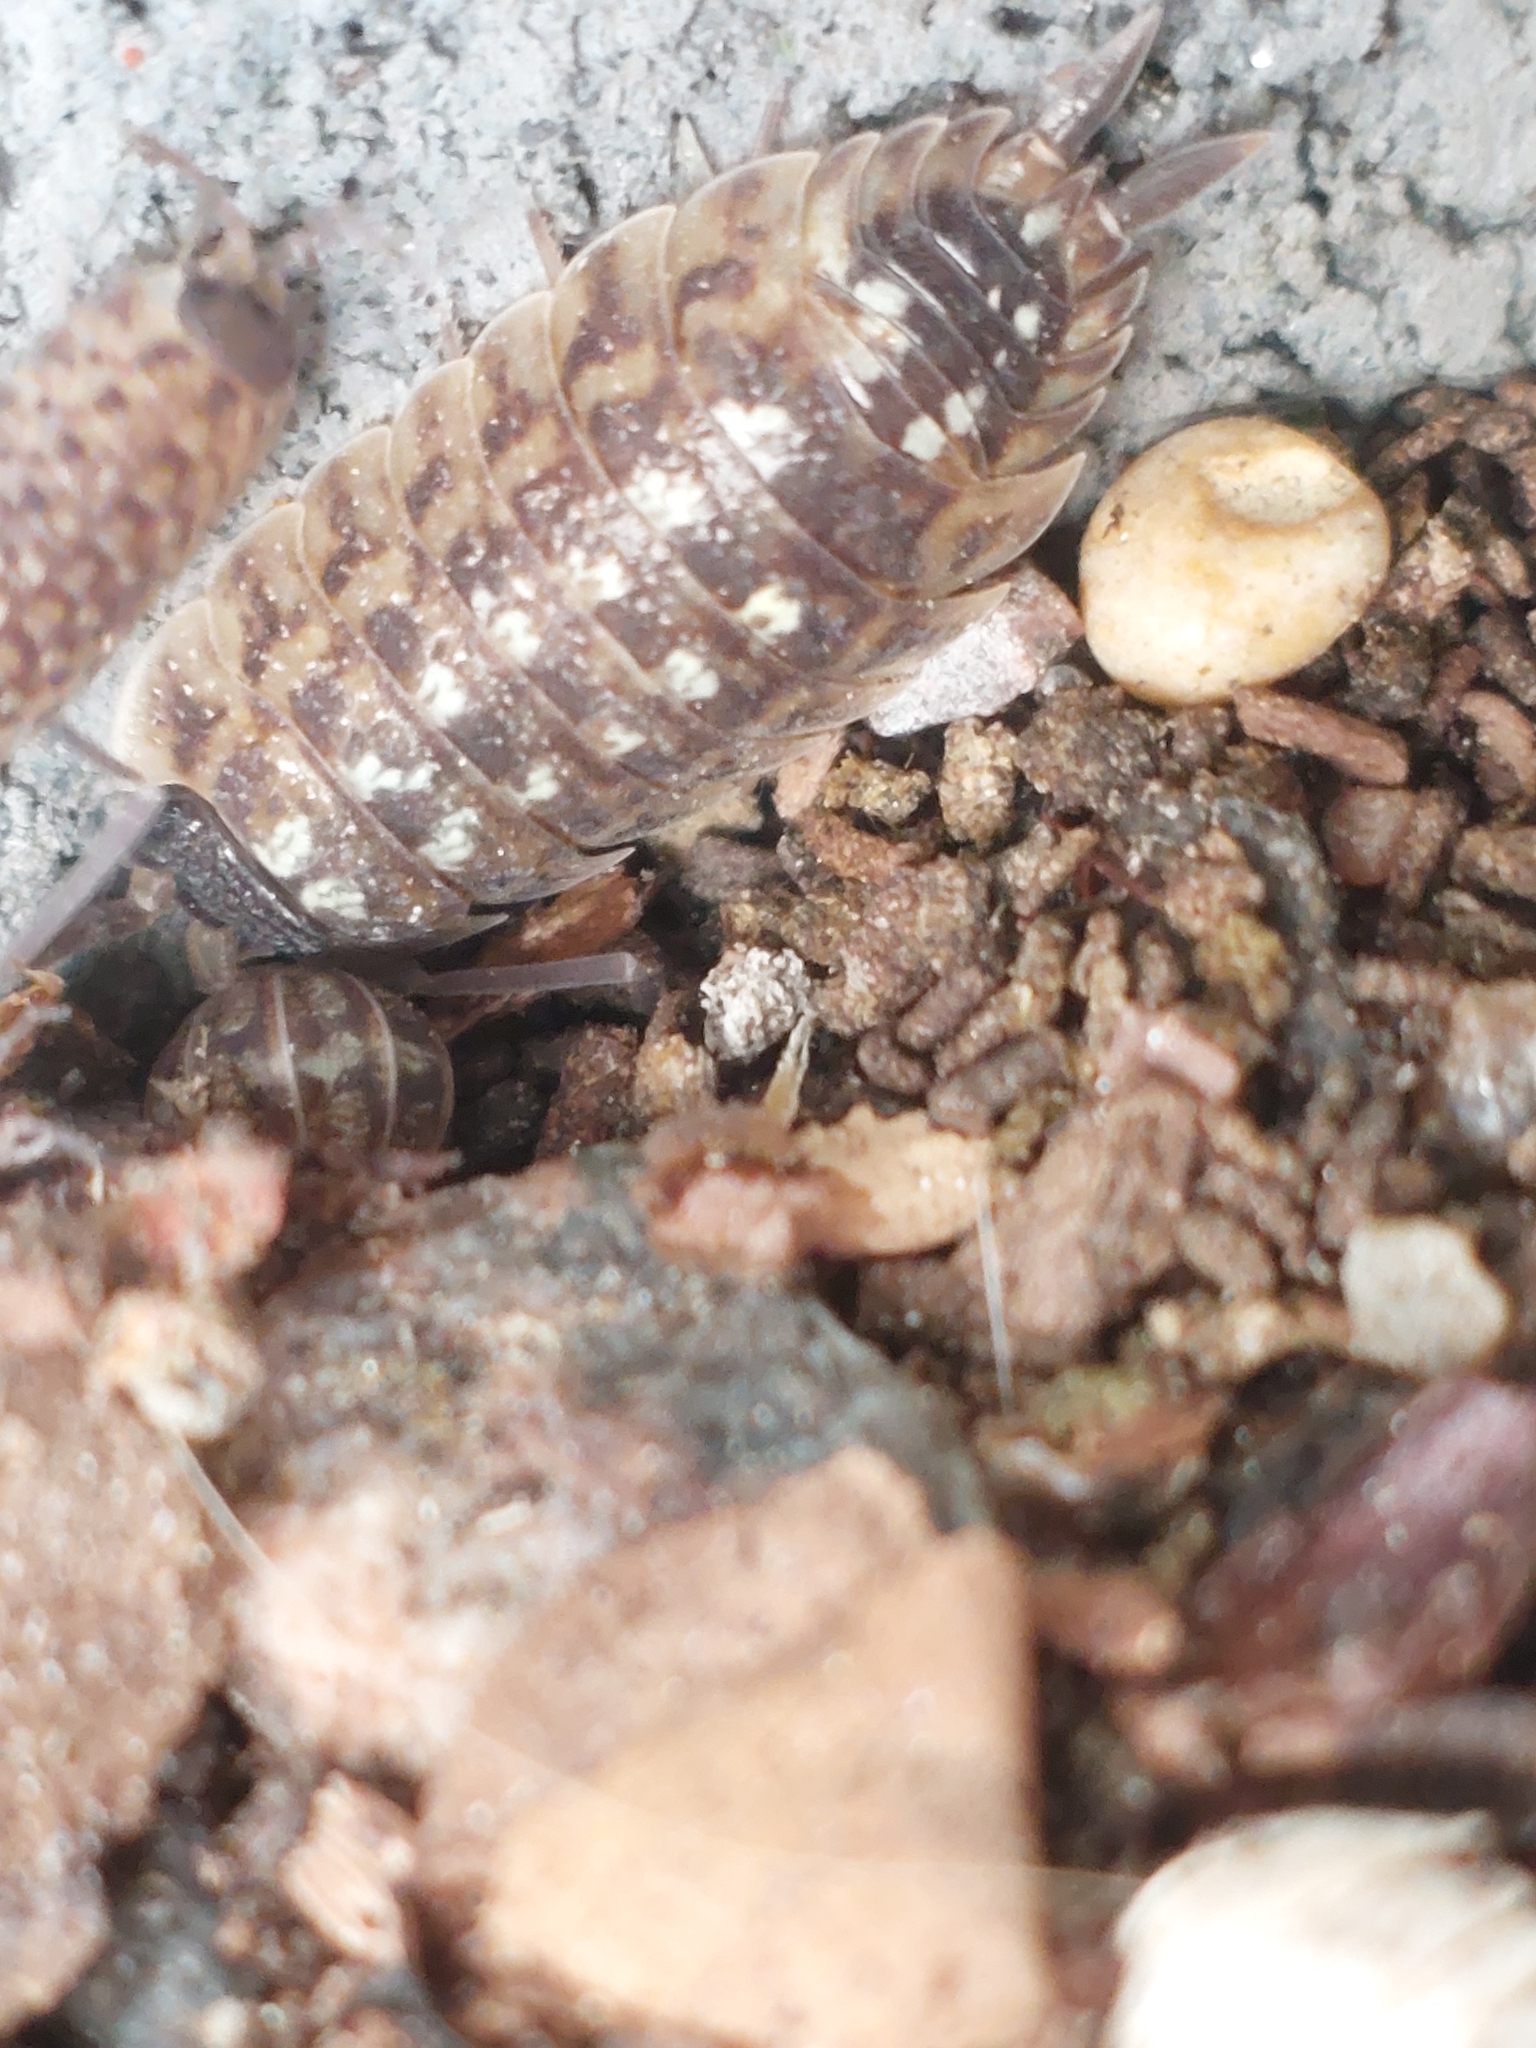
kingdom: Animalia
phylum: Arthropoda
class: Malacostraca
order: Isopoda
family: Porcellionidae
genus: Porcellio
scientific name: Porcellio spinicornis
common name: Painted woodlouse
